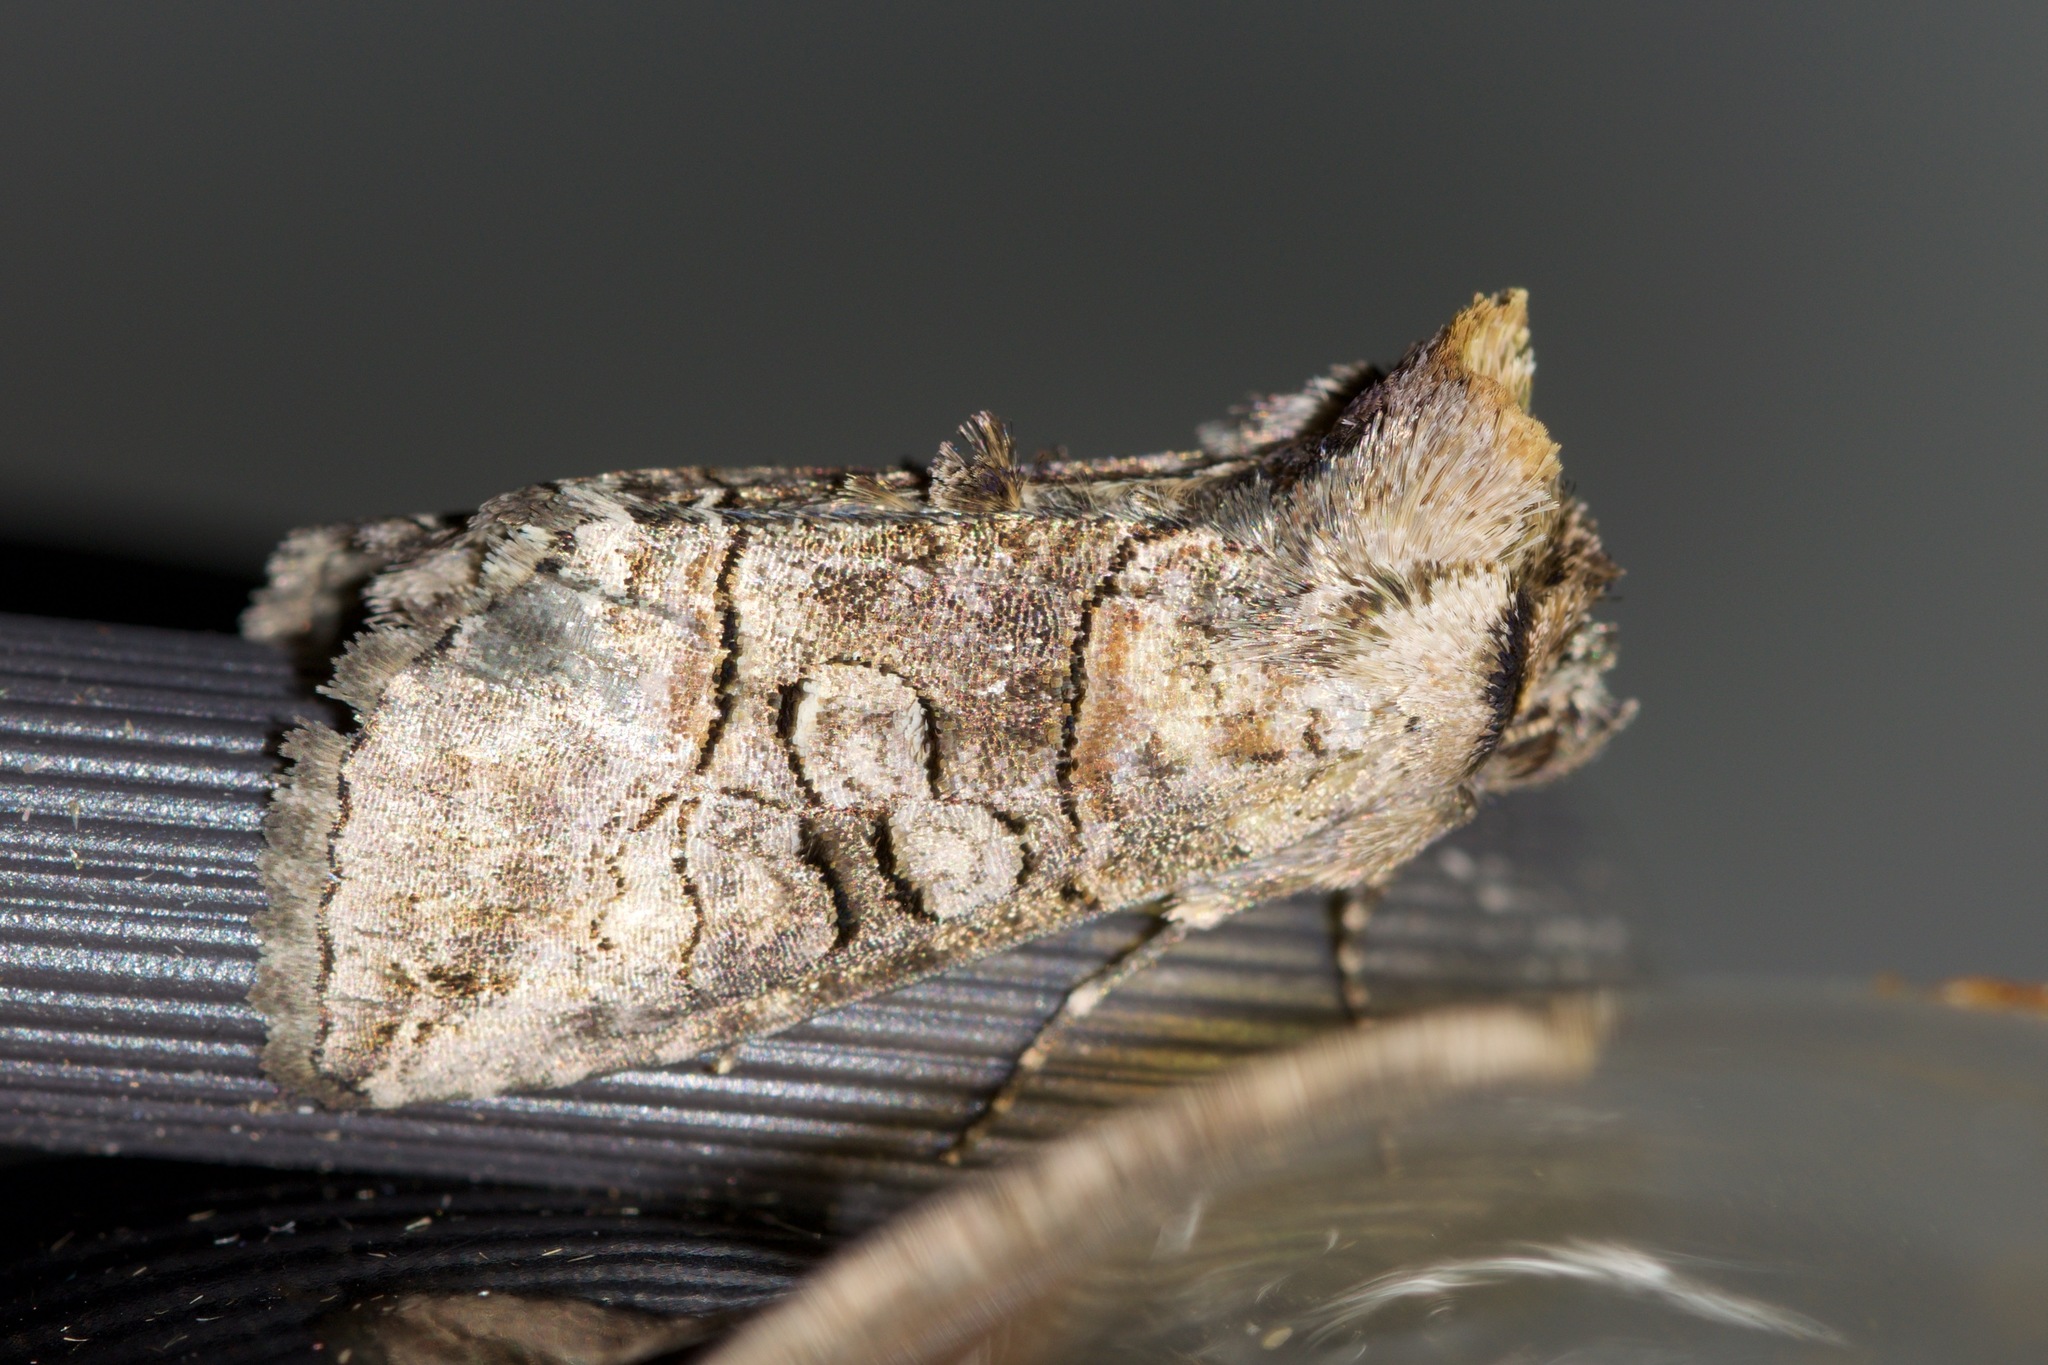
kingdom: Animalia
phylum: Arthropoda
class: Insecta
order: Lepidoptera
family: Noctuidae
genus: Abrostola
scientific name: Abrostola urentis
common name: Spectacled nettle moth
